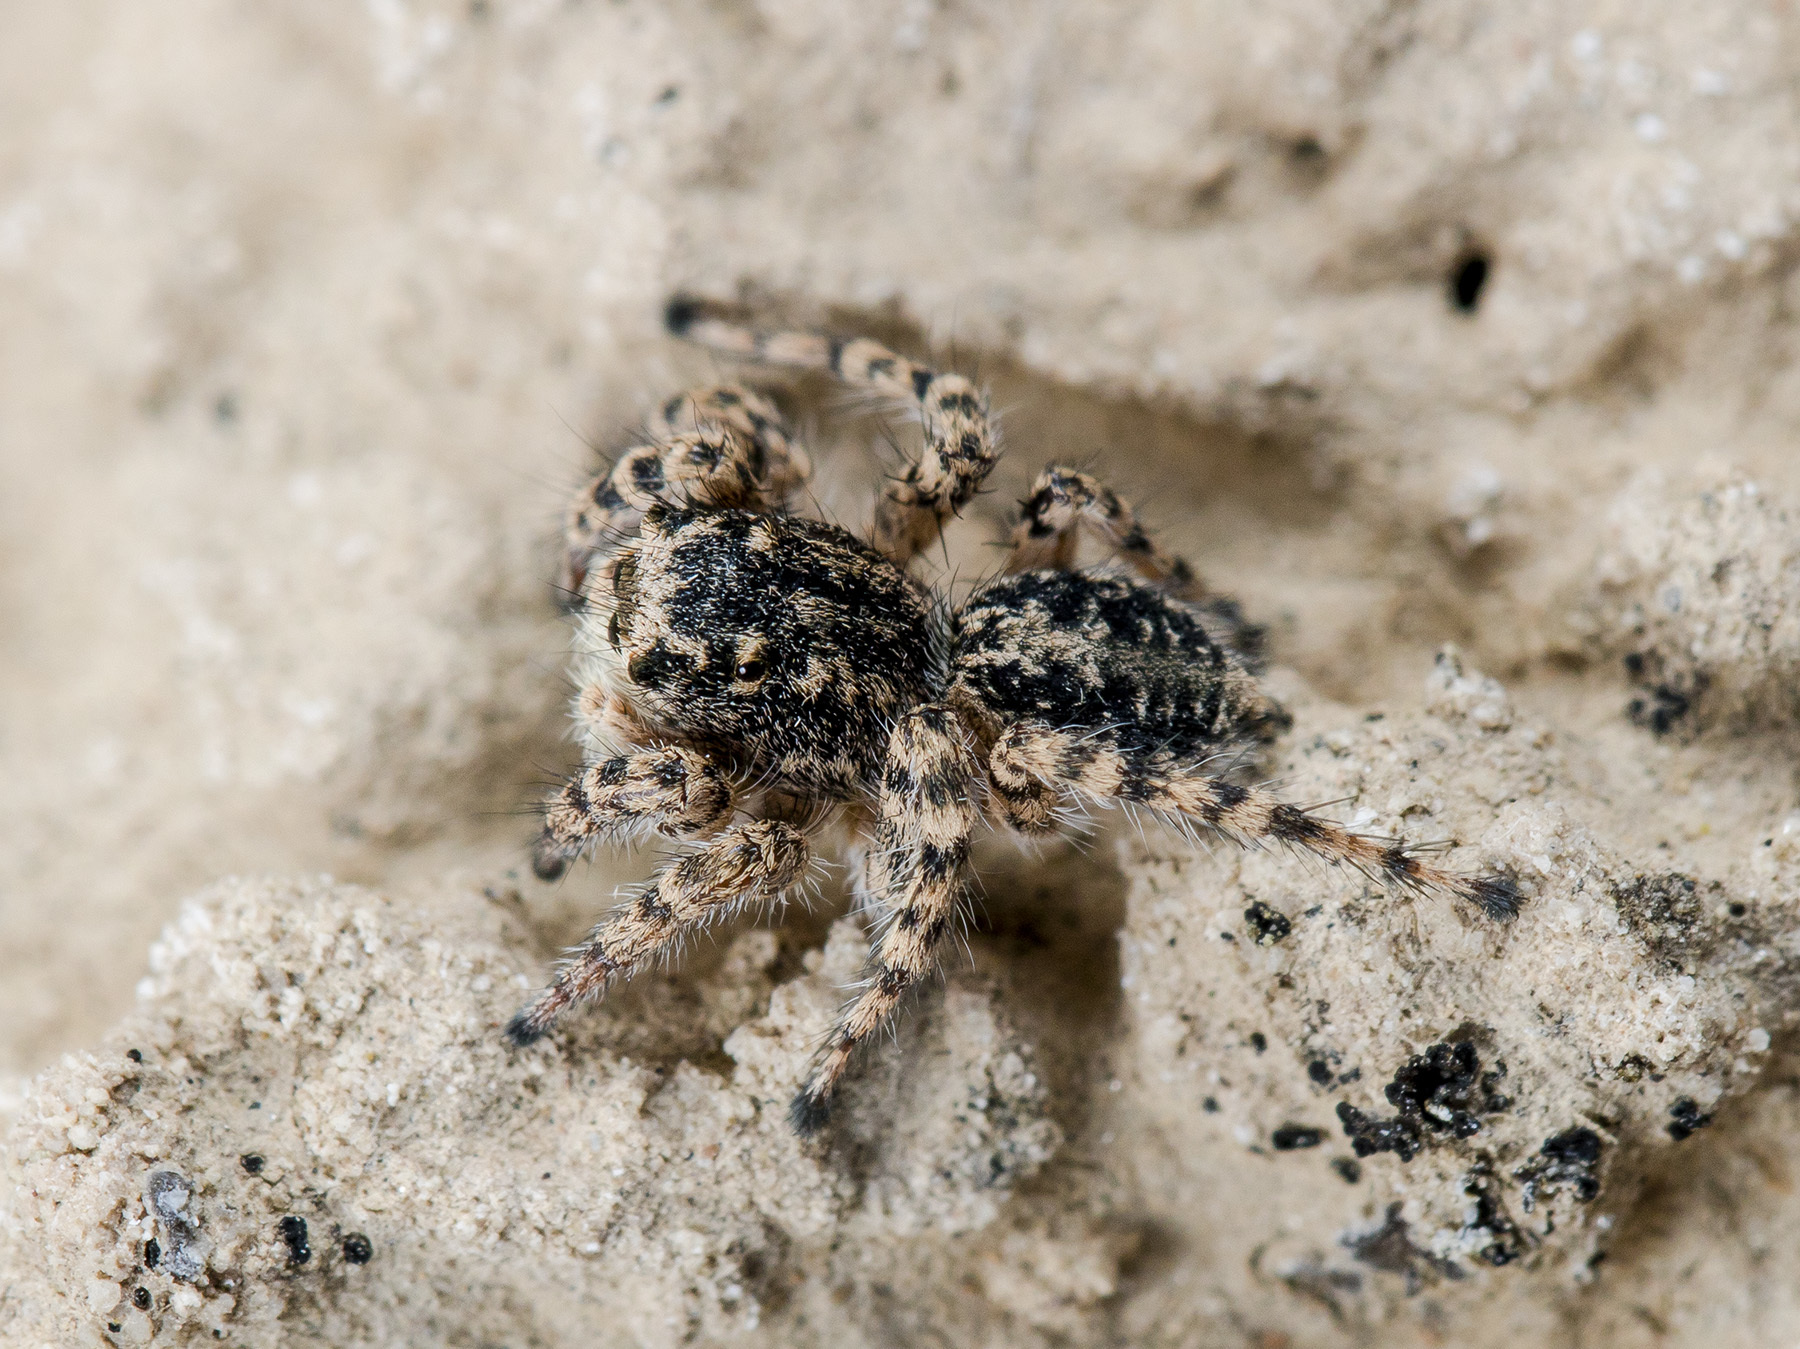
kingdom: Animalia
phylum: Arthropoda
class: Arachnida
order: Araneae
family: Salticidae
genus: Aelurillus
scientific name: Aelurillus dubatolovi
